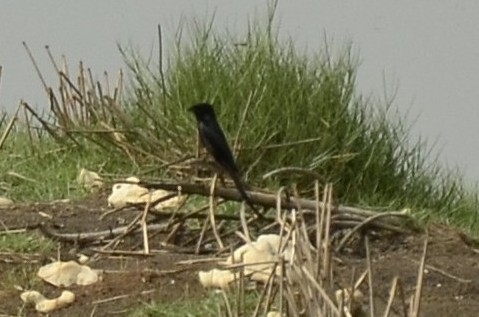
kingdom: Animalia
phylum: Chordata
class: Aves
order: Passeriformes
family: Dicruridae
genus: Dicrurus
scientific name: Dicrurus macrocercus
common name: Black drongo
